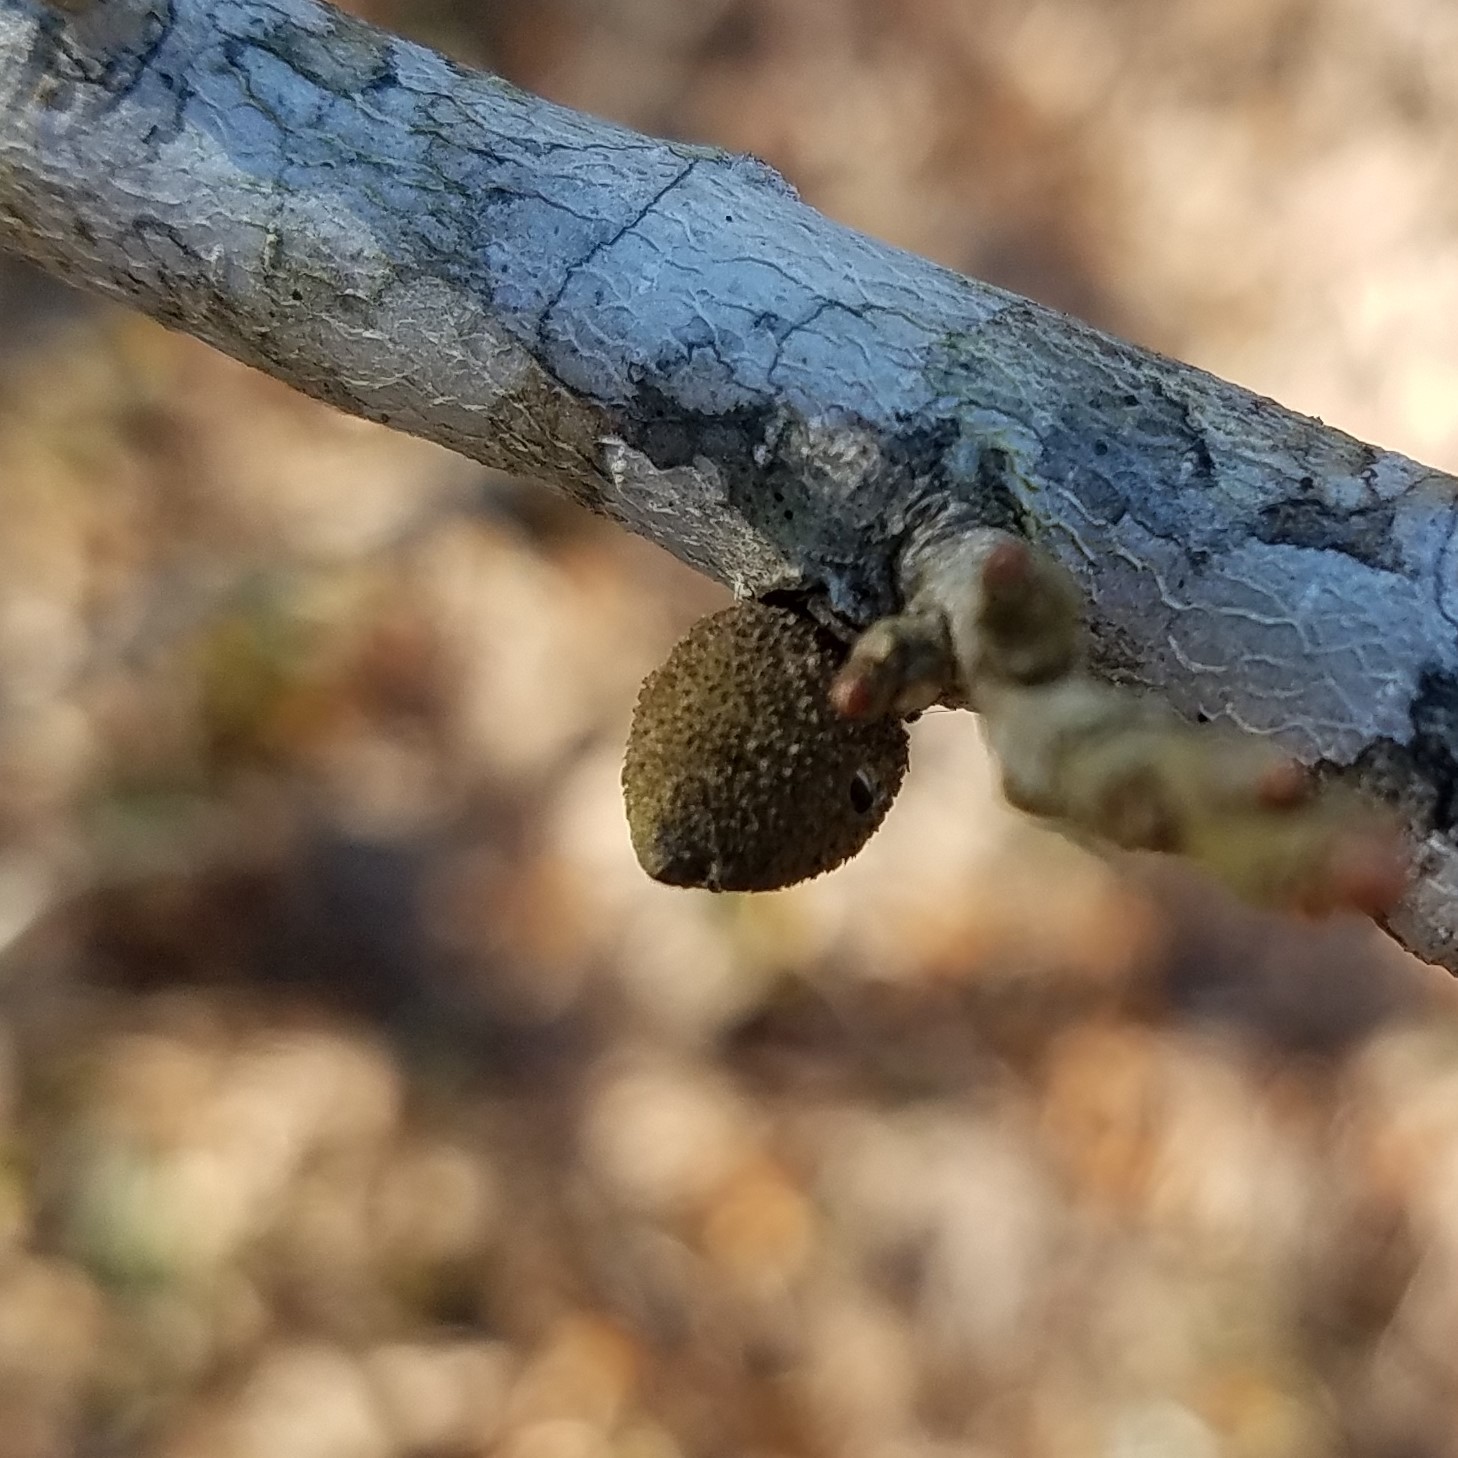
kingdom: Animalia
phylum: Arthropoda
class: Insecta
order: Hymenoptera
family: Cynipidae
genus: Disholcaspis
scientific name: Disholcaspis
